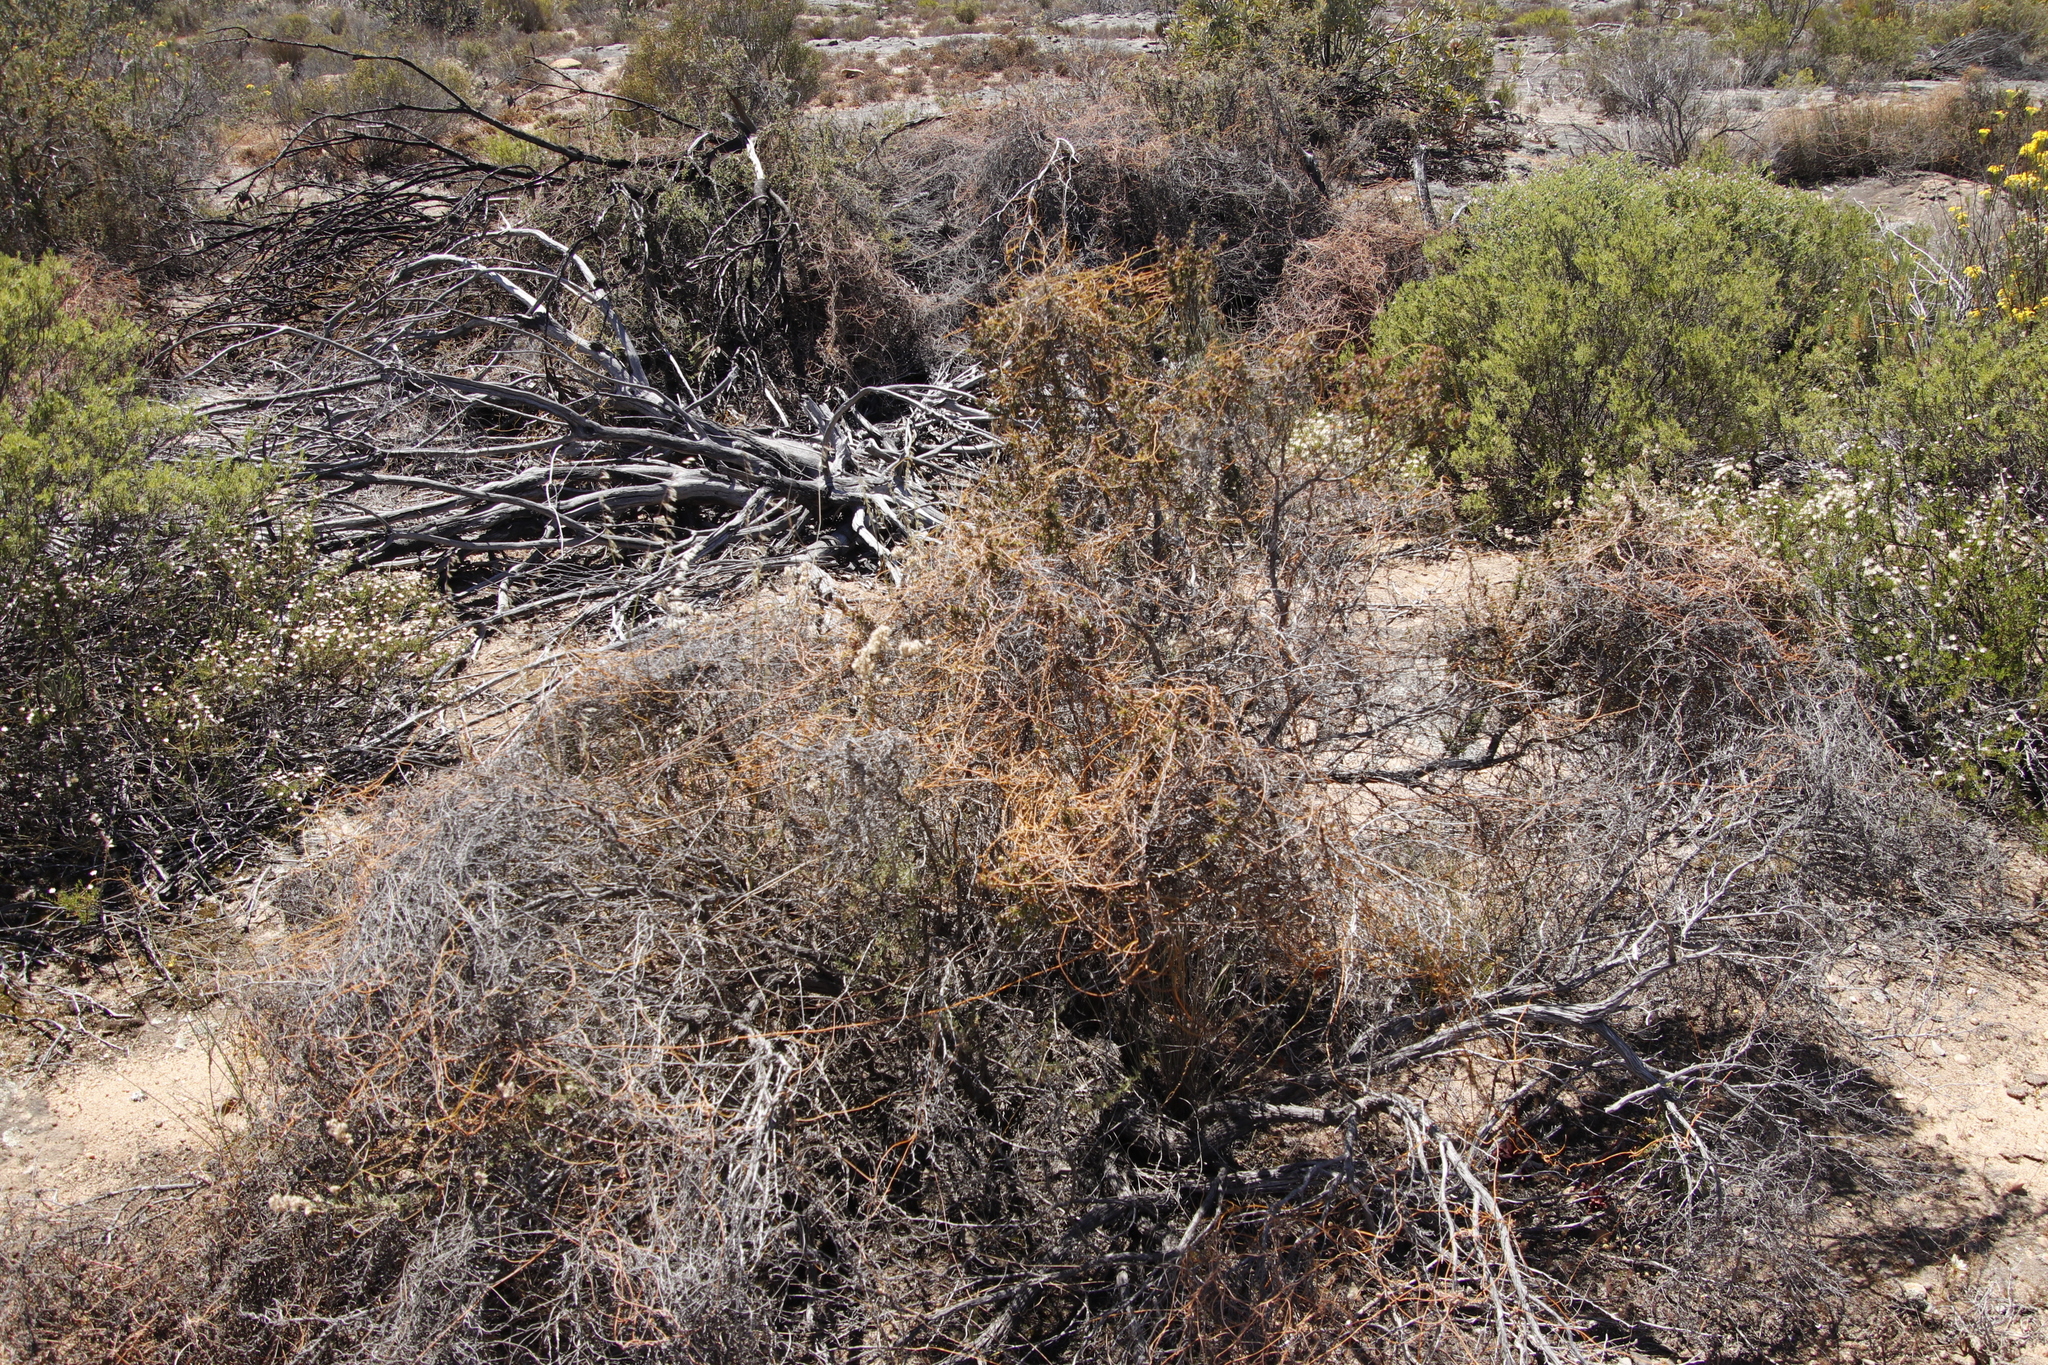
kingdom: Plantae
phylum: Tracheophyta
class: Magnoliopsida
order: Laurales
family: Lauraceae
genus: Cassytha
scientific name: Cassytha ciliolata
